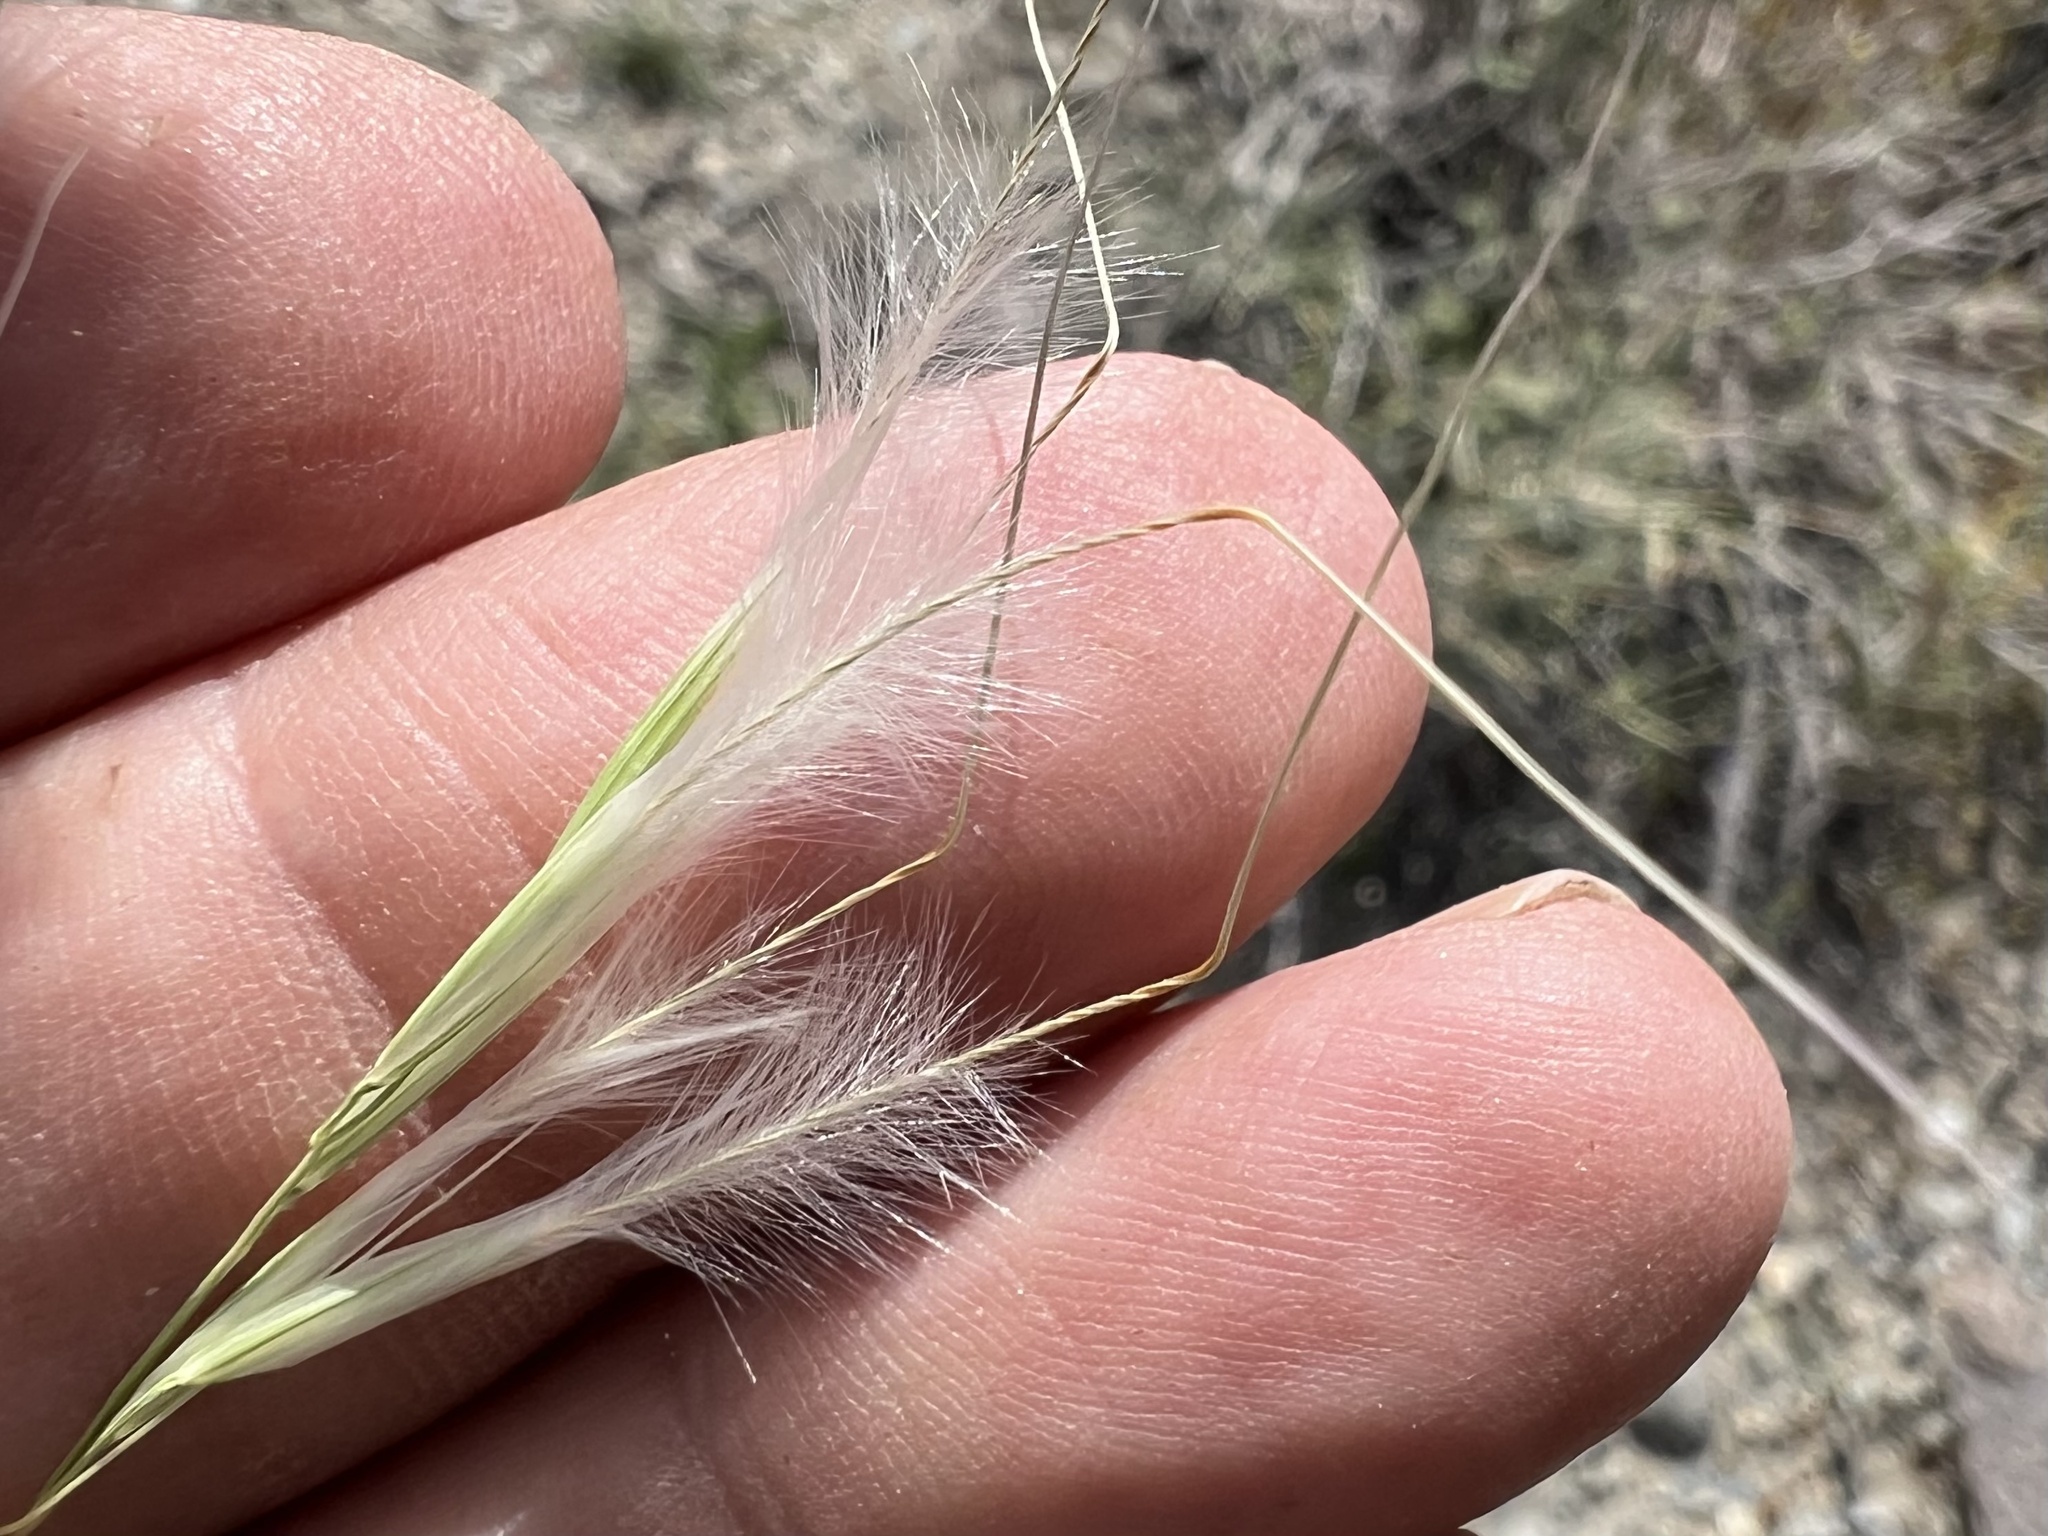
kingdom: Plantae
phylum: Tracheophyta
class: Liliopsida
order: Poales
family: Poaceae
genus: Pappostipa
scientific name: Pappostipa speciosa
